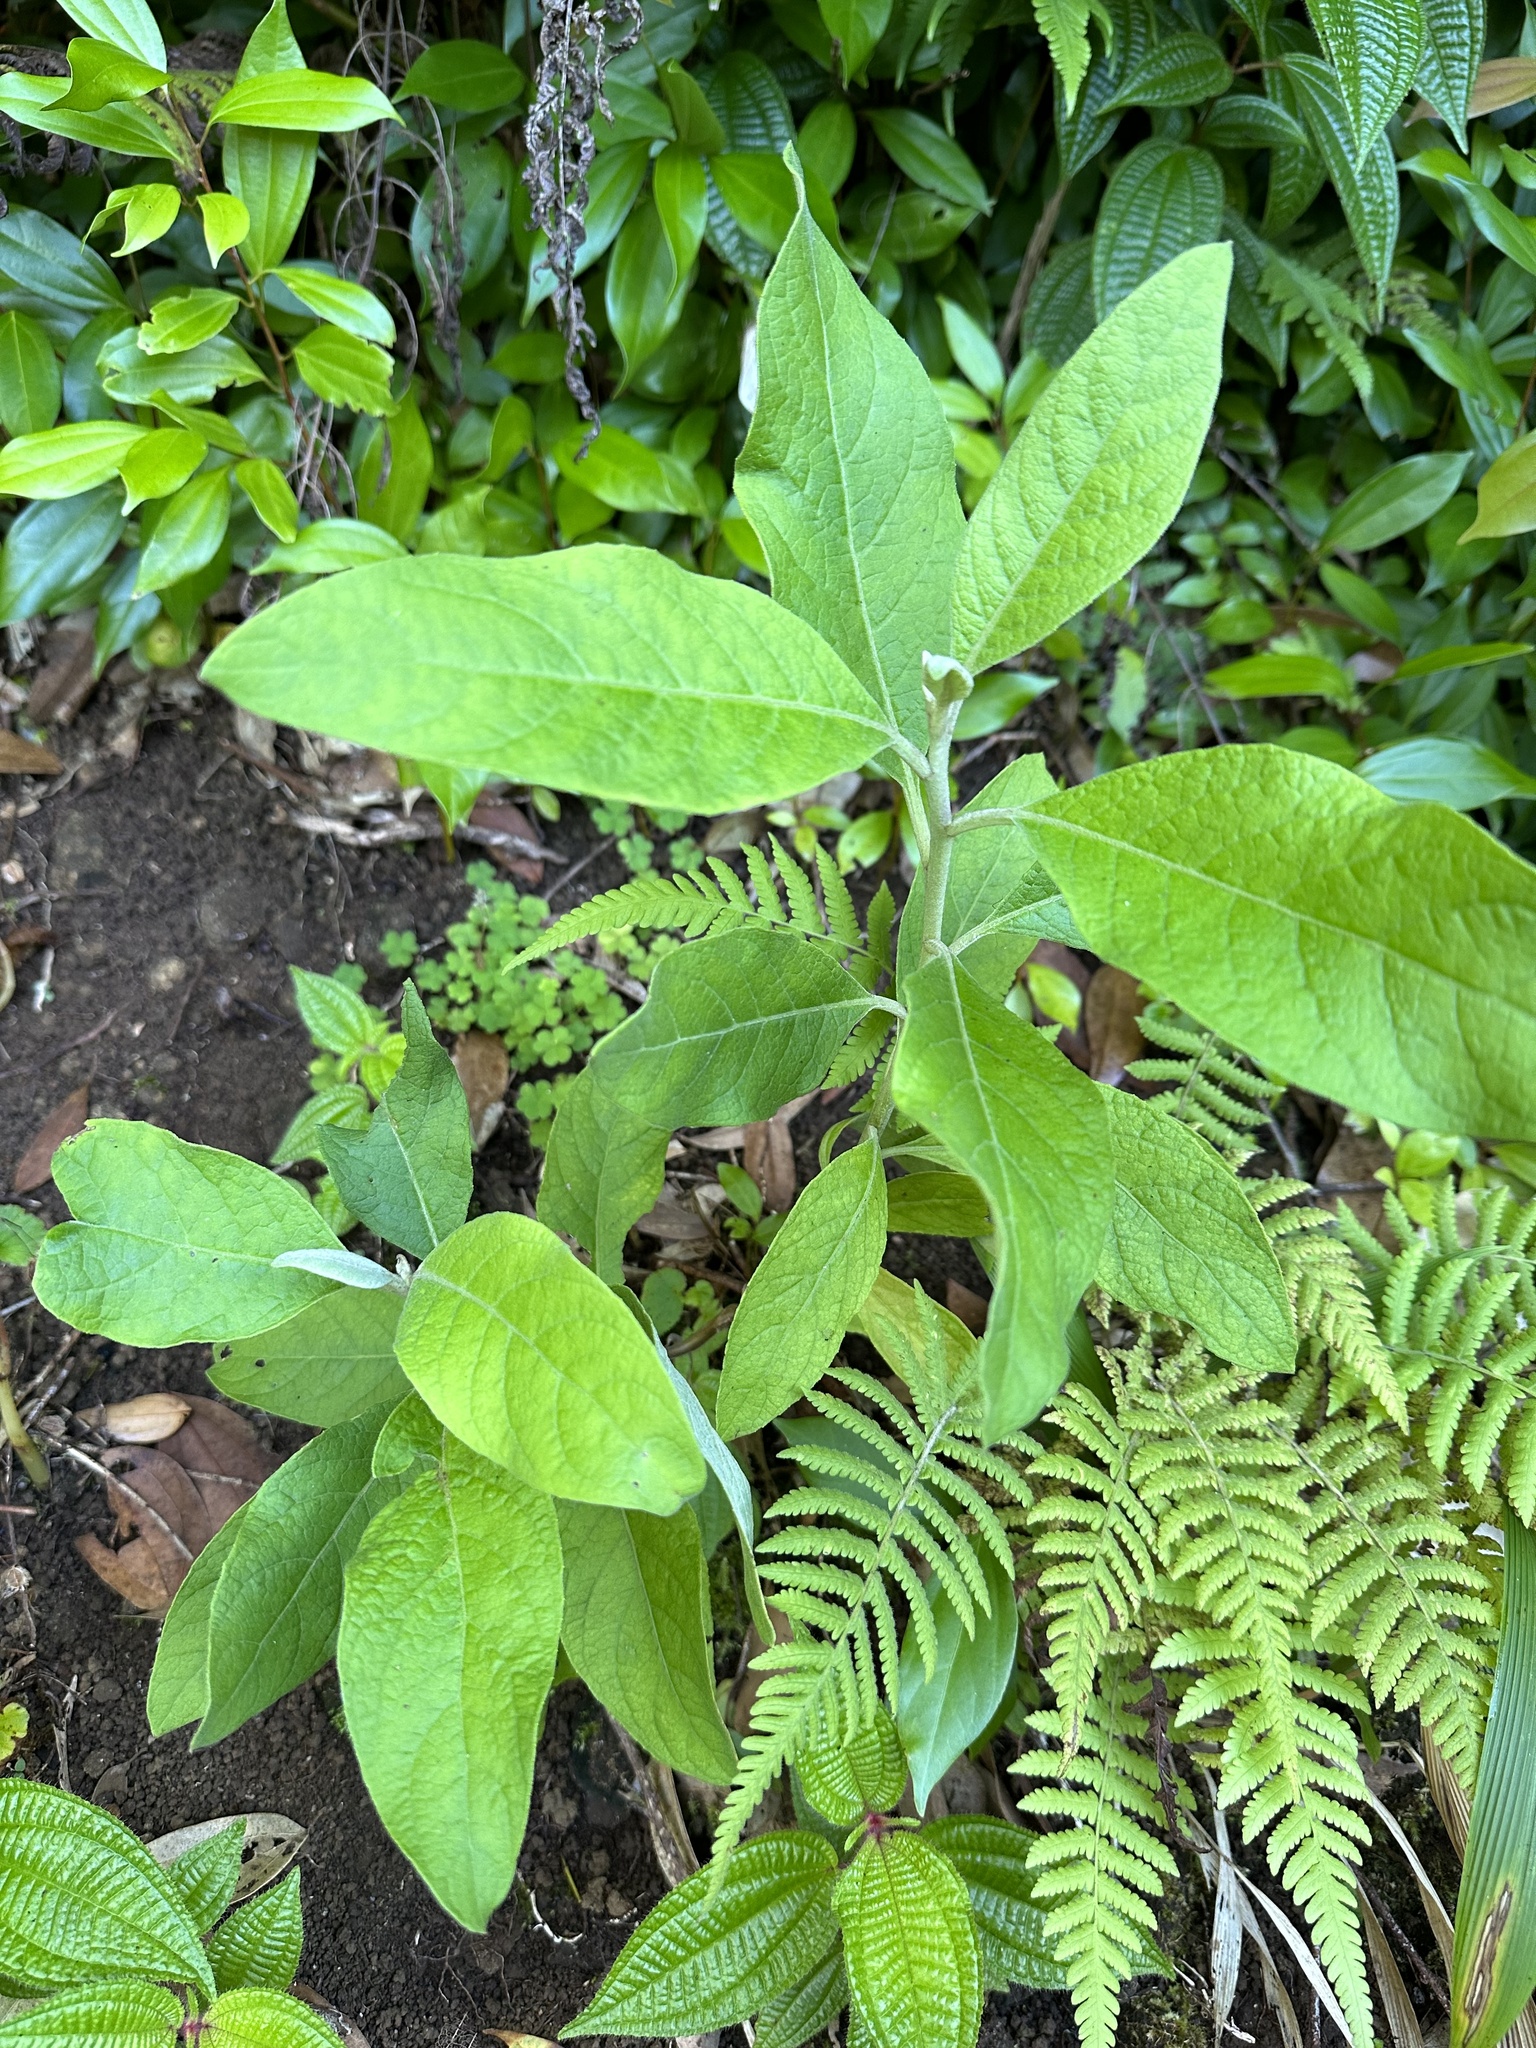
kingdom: Plantae
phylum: Tracheophyta
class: Magnoliopsida
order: Asterales
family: Asteraceae
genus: Pluchea
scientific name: Pluchea carolinensis
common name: Marsh fleabane
